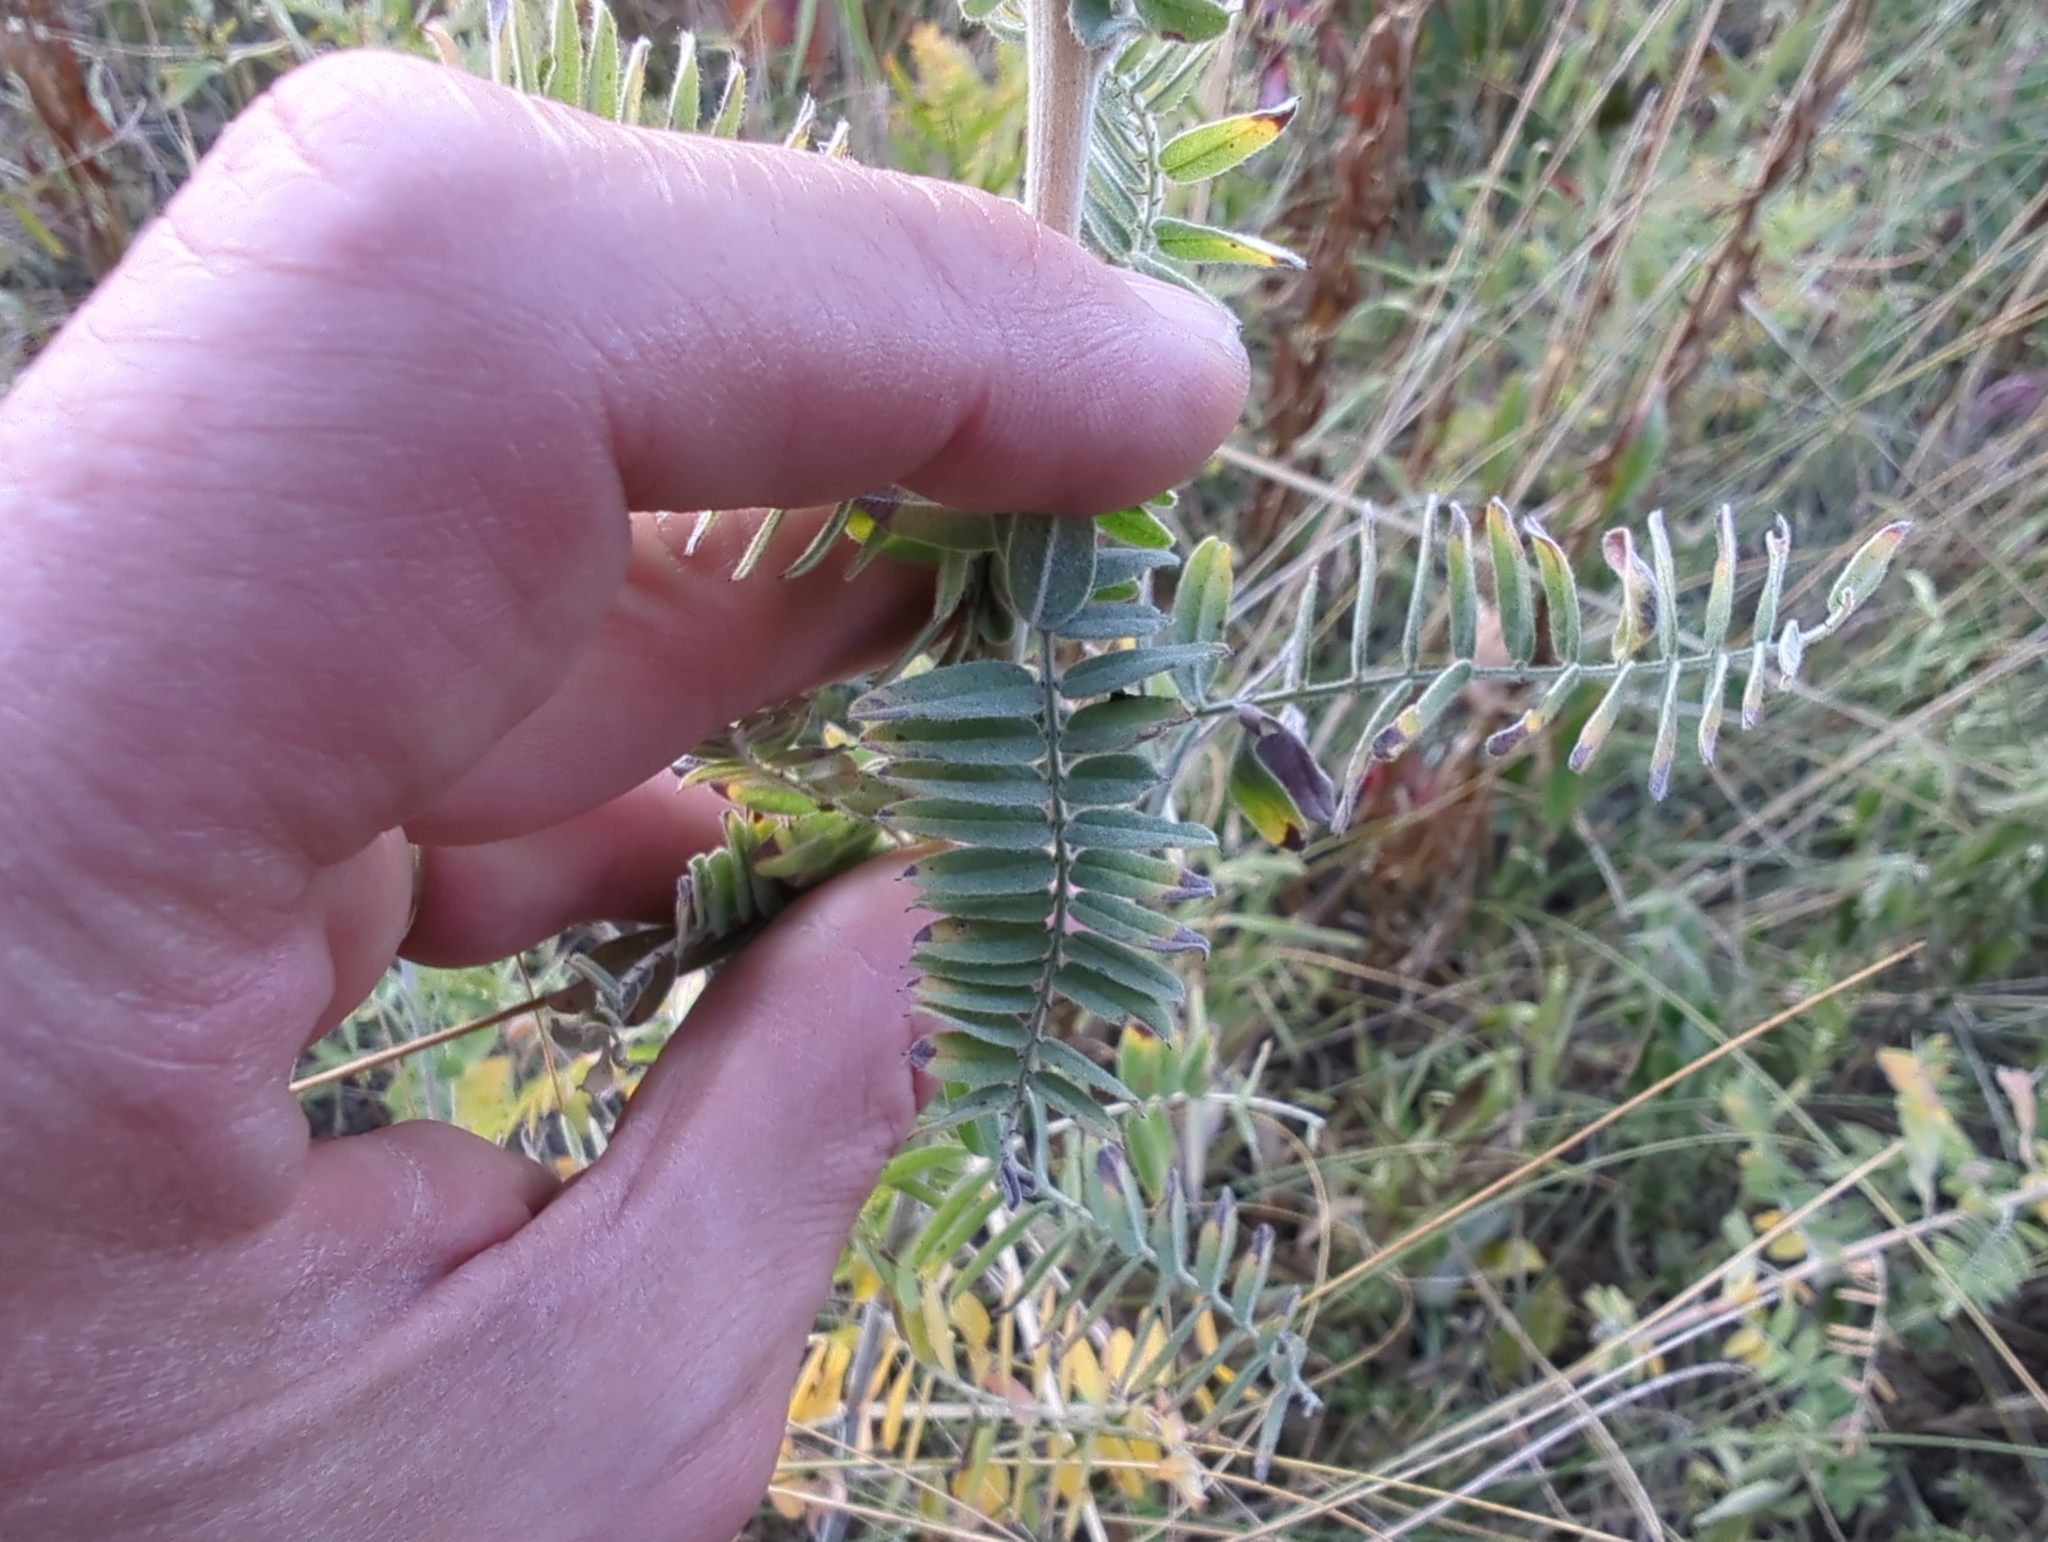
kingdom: Plantae
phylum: Tracheophyta
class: Magnoliopsida
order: Fabales
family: Fabaceae
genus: Amorpha
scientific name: Amorpha canescens
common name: Leadplant
